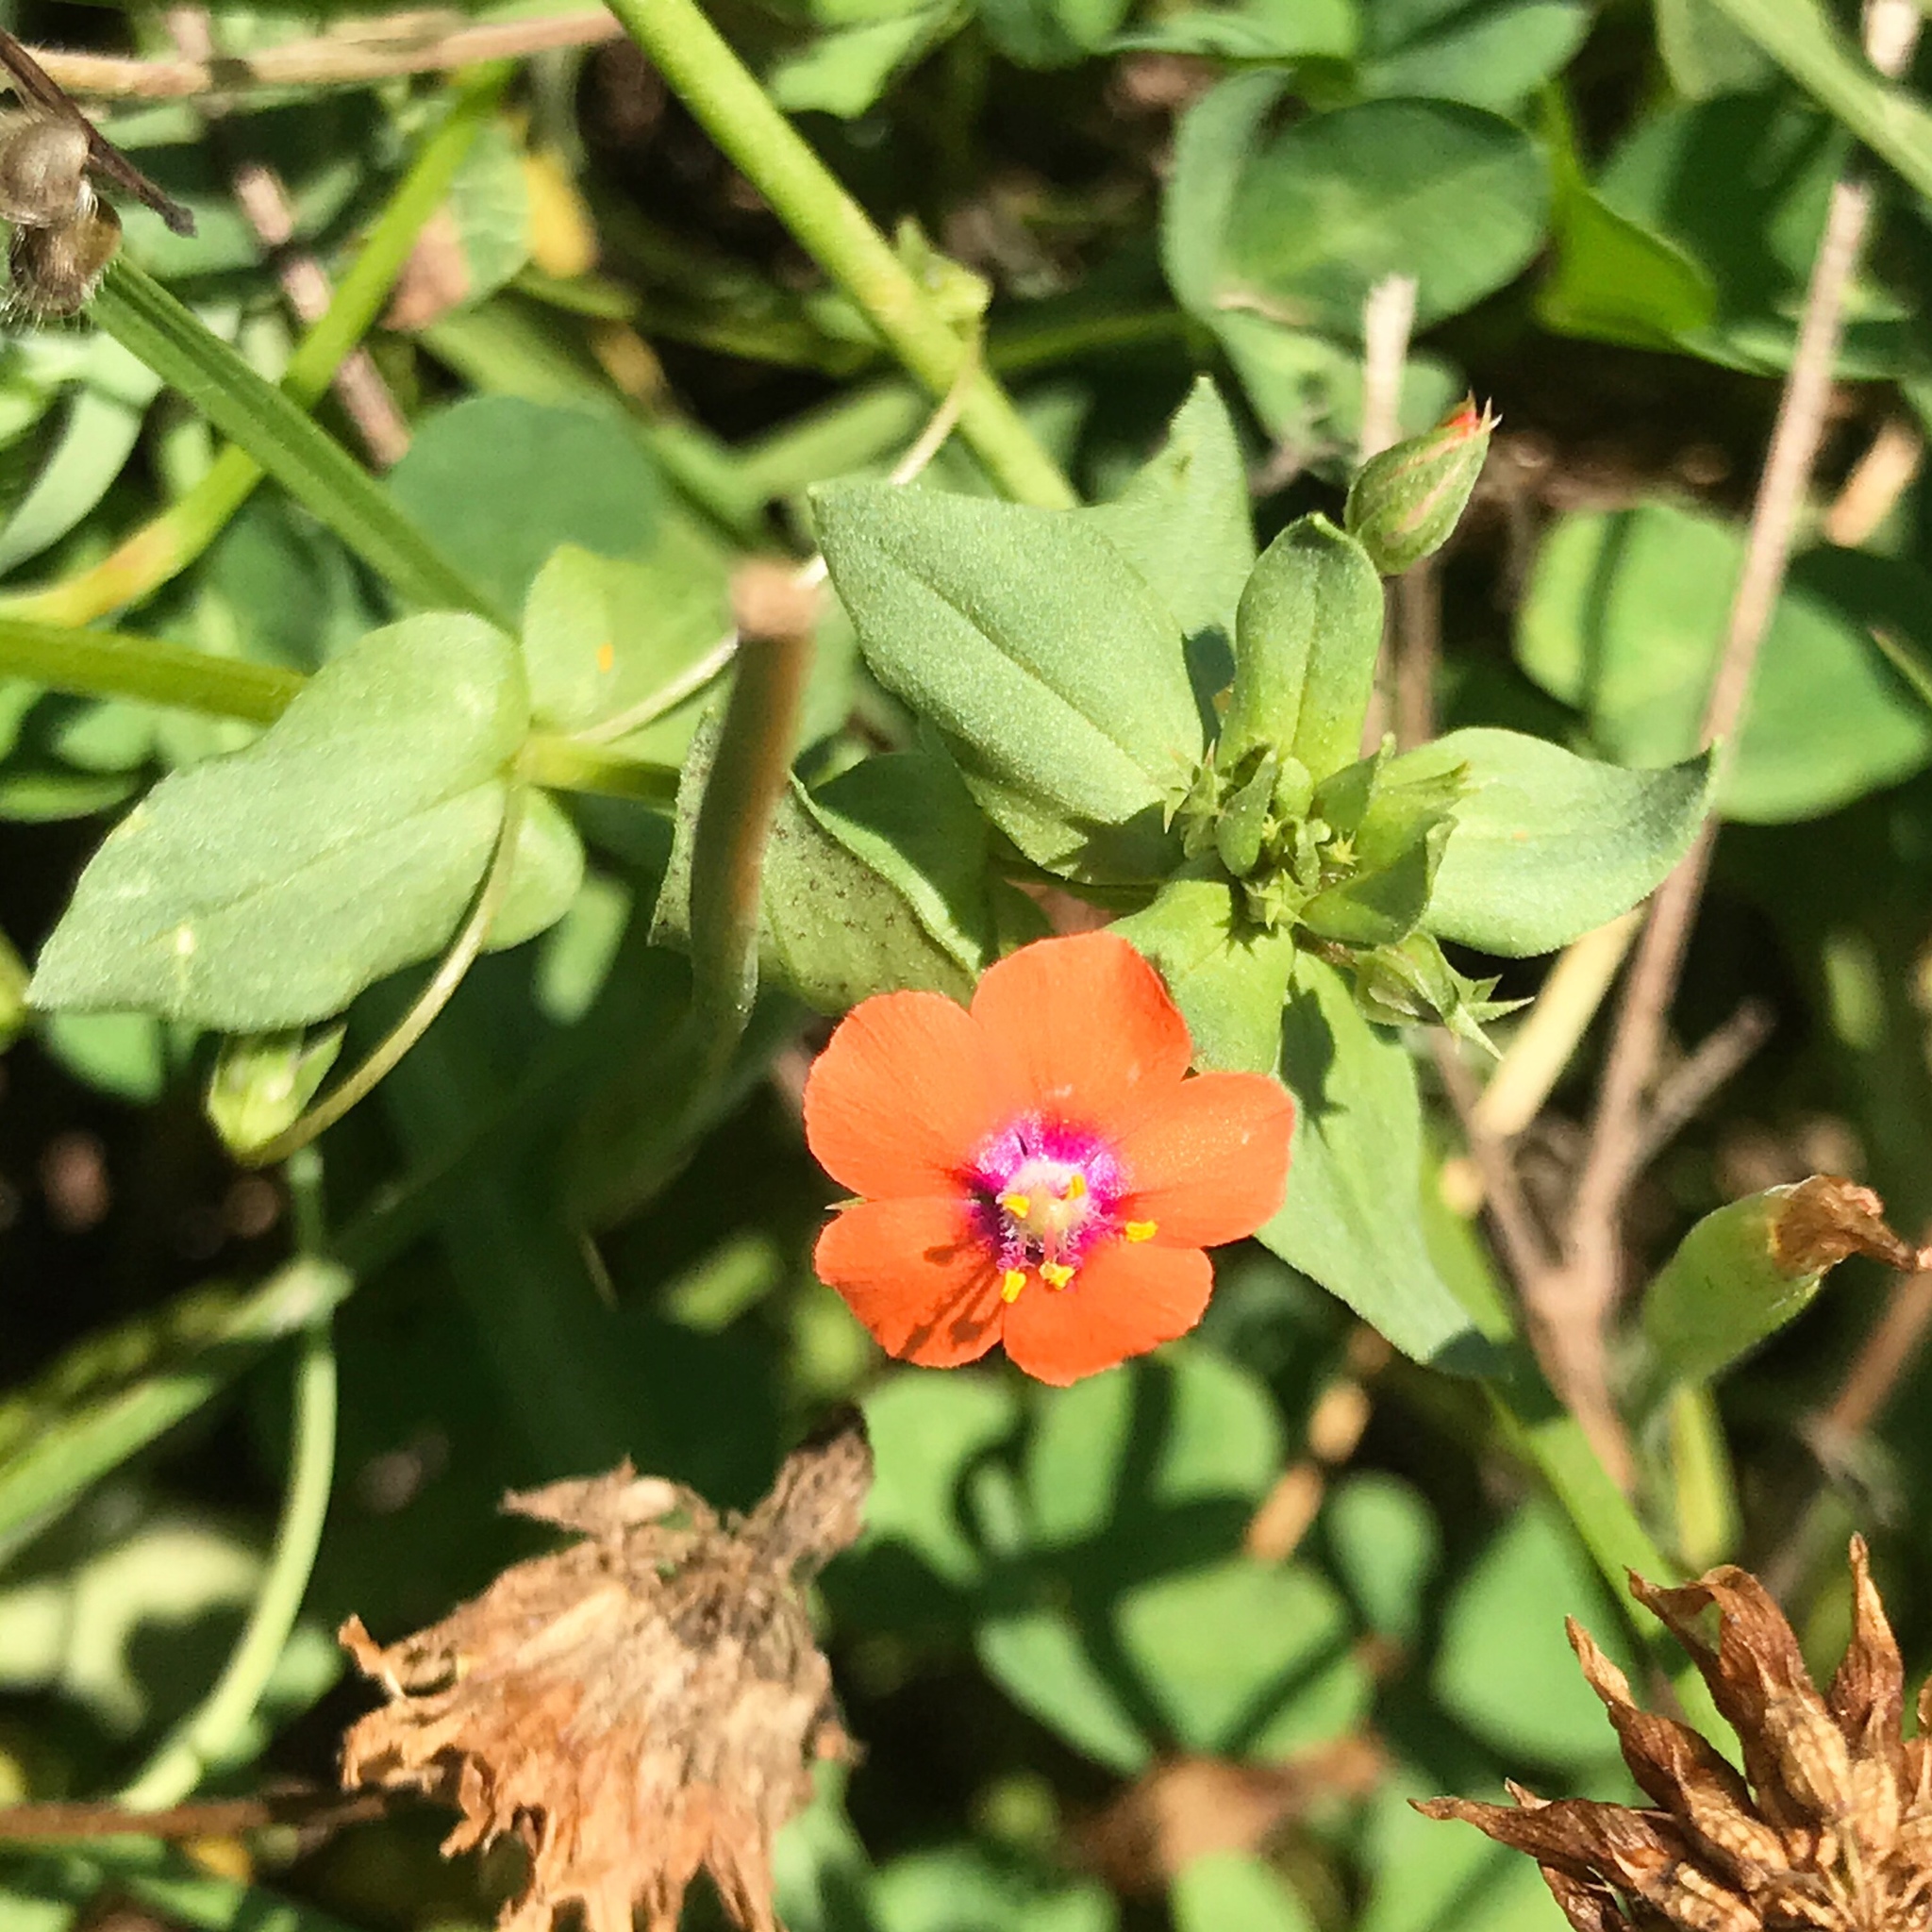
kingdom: Plantae
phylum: Tracheophyta
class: Magnoliopsida
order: Ericales
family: Primulaceae
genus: Lysimachia
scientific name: Lysimachia arvensis
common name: Scarlet pimpernel
